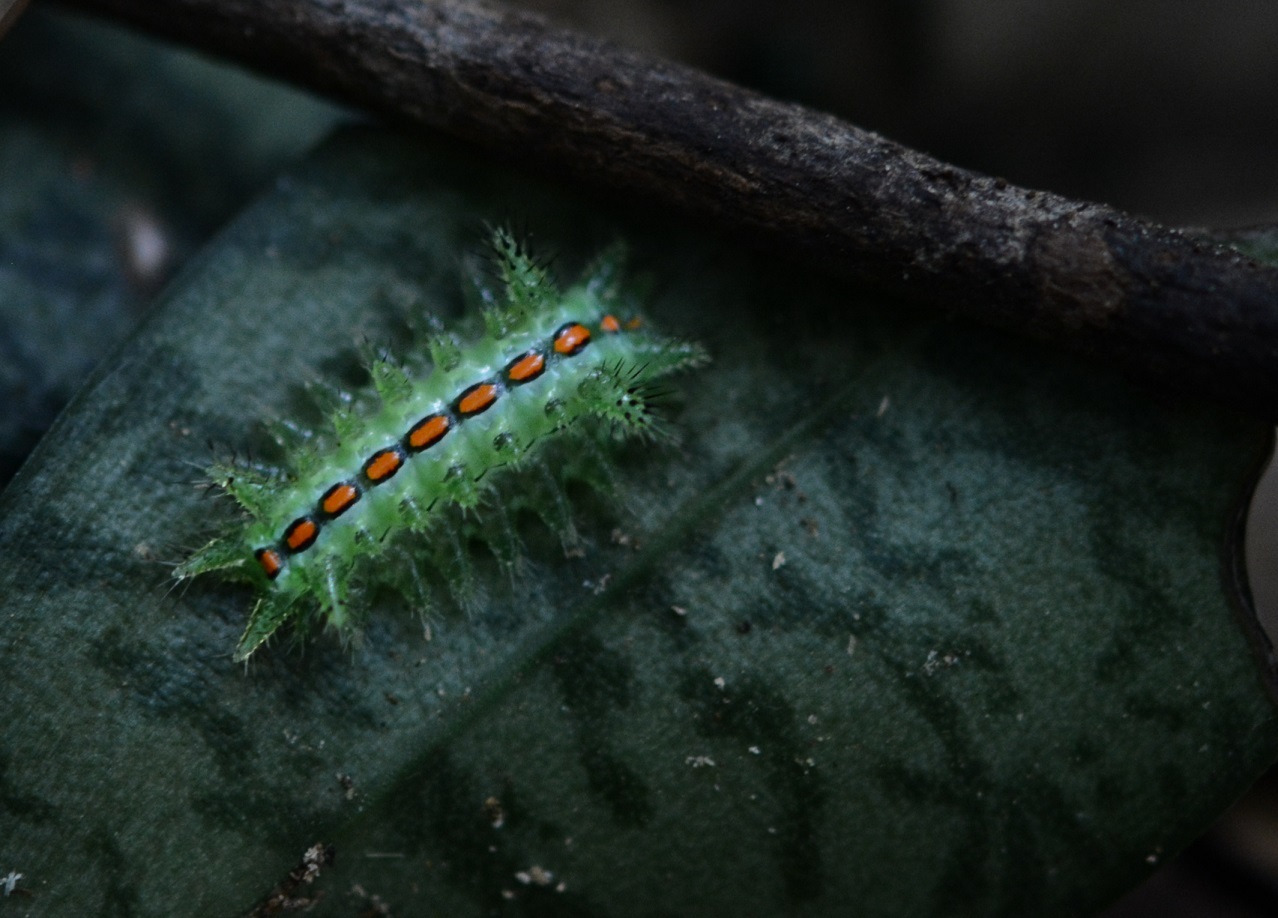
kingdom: Animalia
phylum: Arthropoda
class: Insecta
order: Lepidoptera
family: Limacodidae
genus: Euclea
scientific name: Euclea plugma
